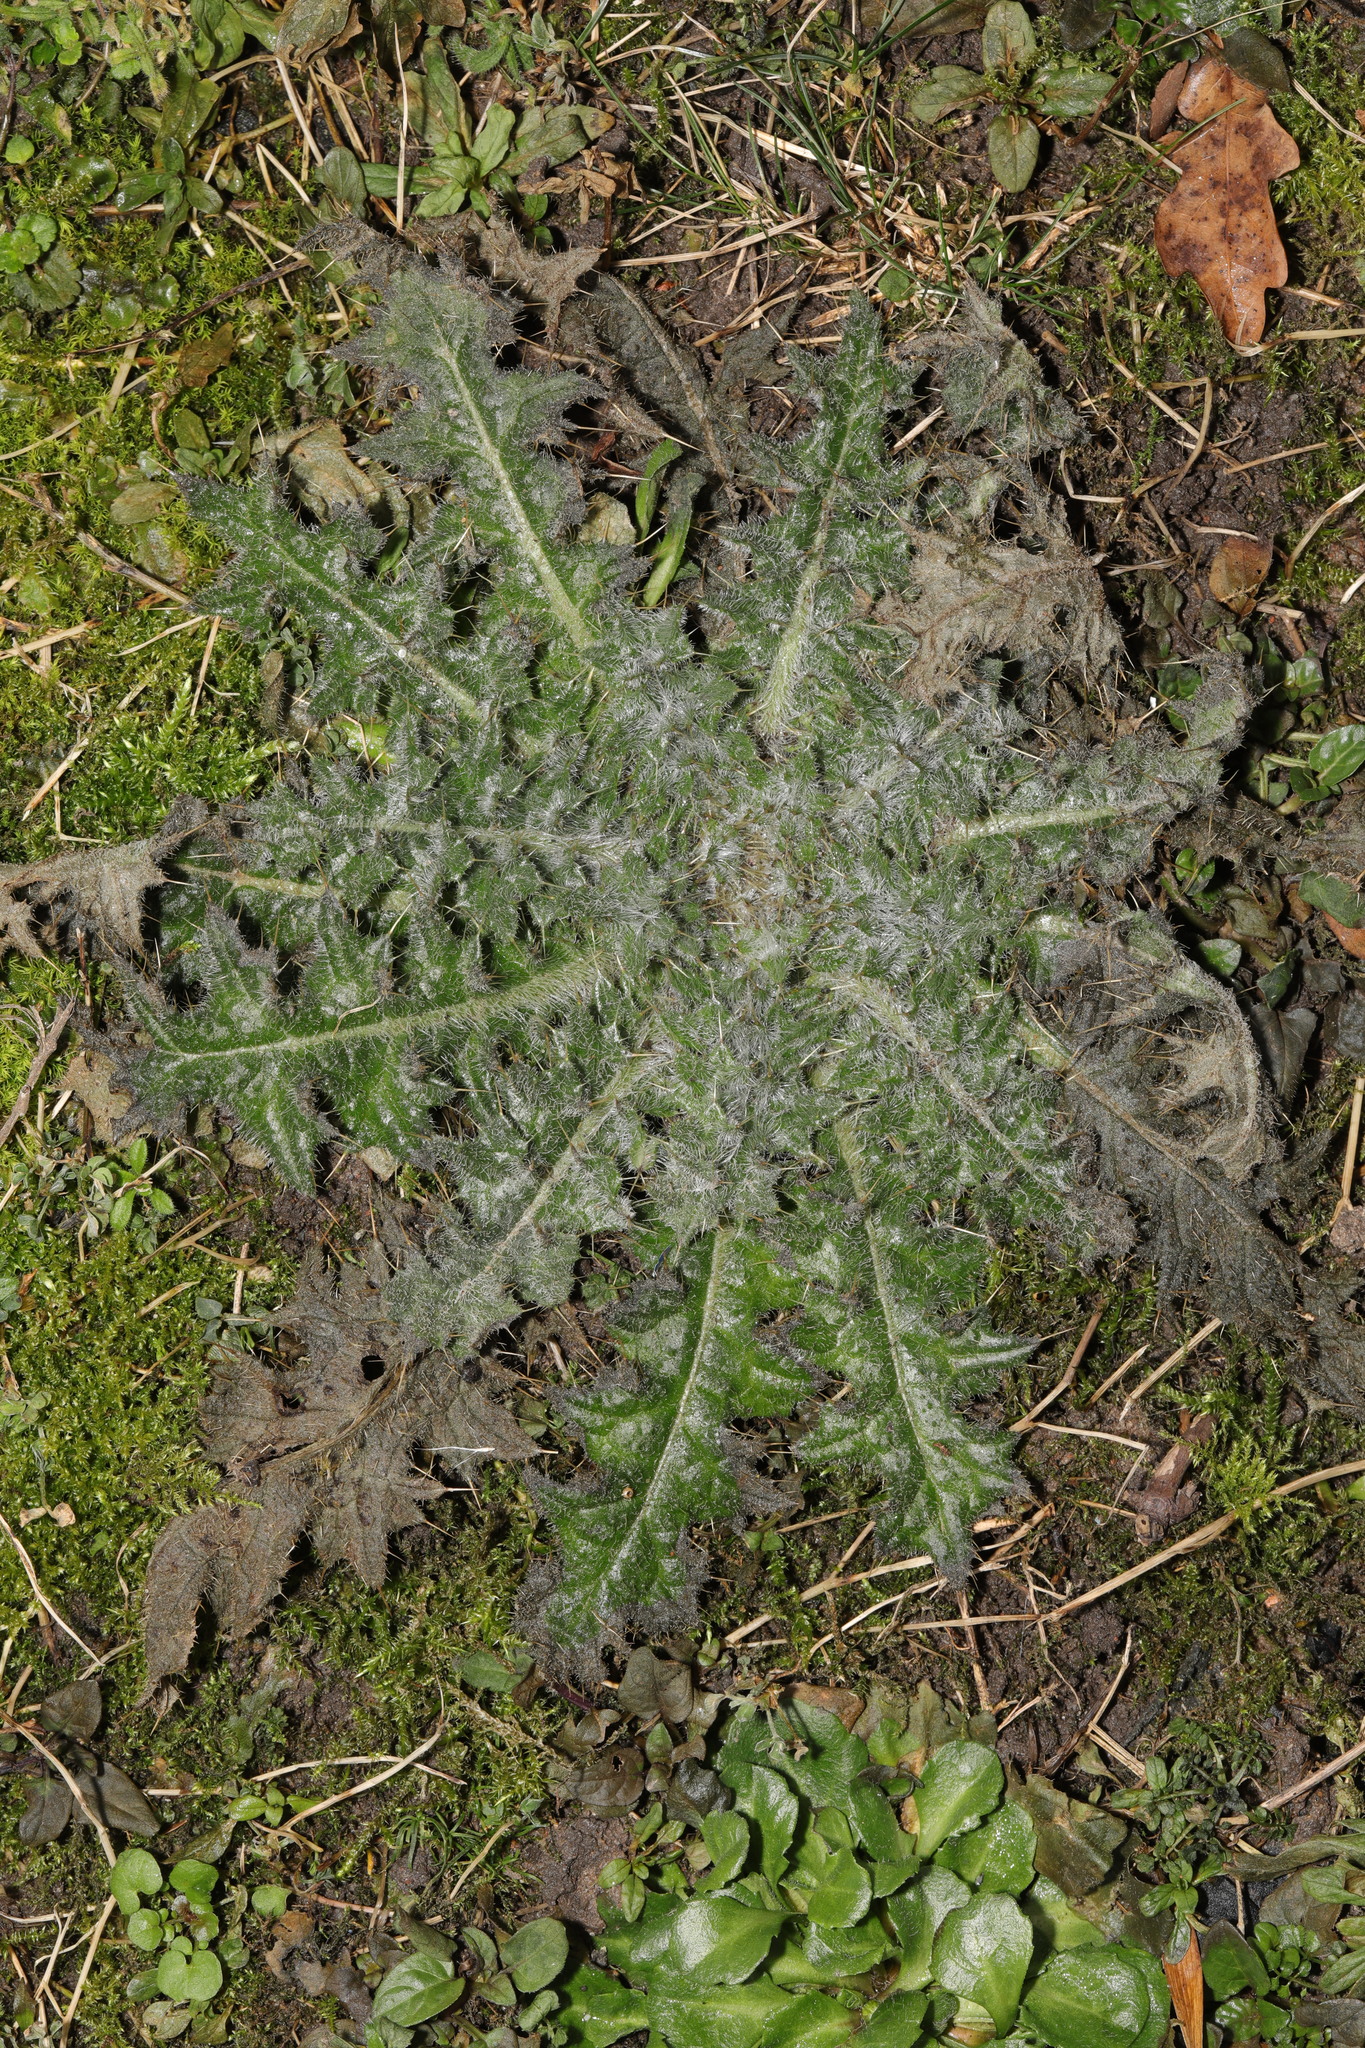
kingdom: Plantae
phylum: Tracheophyta
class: Magnoliopsida
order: Asterales
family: Asteraceae
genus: Cirsium
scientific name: Cirsium vulgare
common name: Bull thistle
